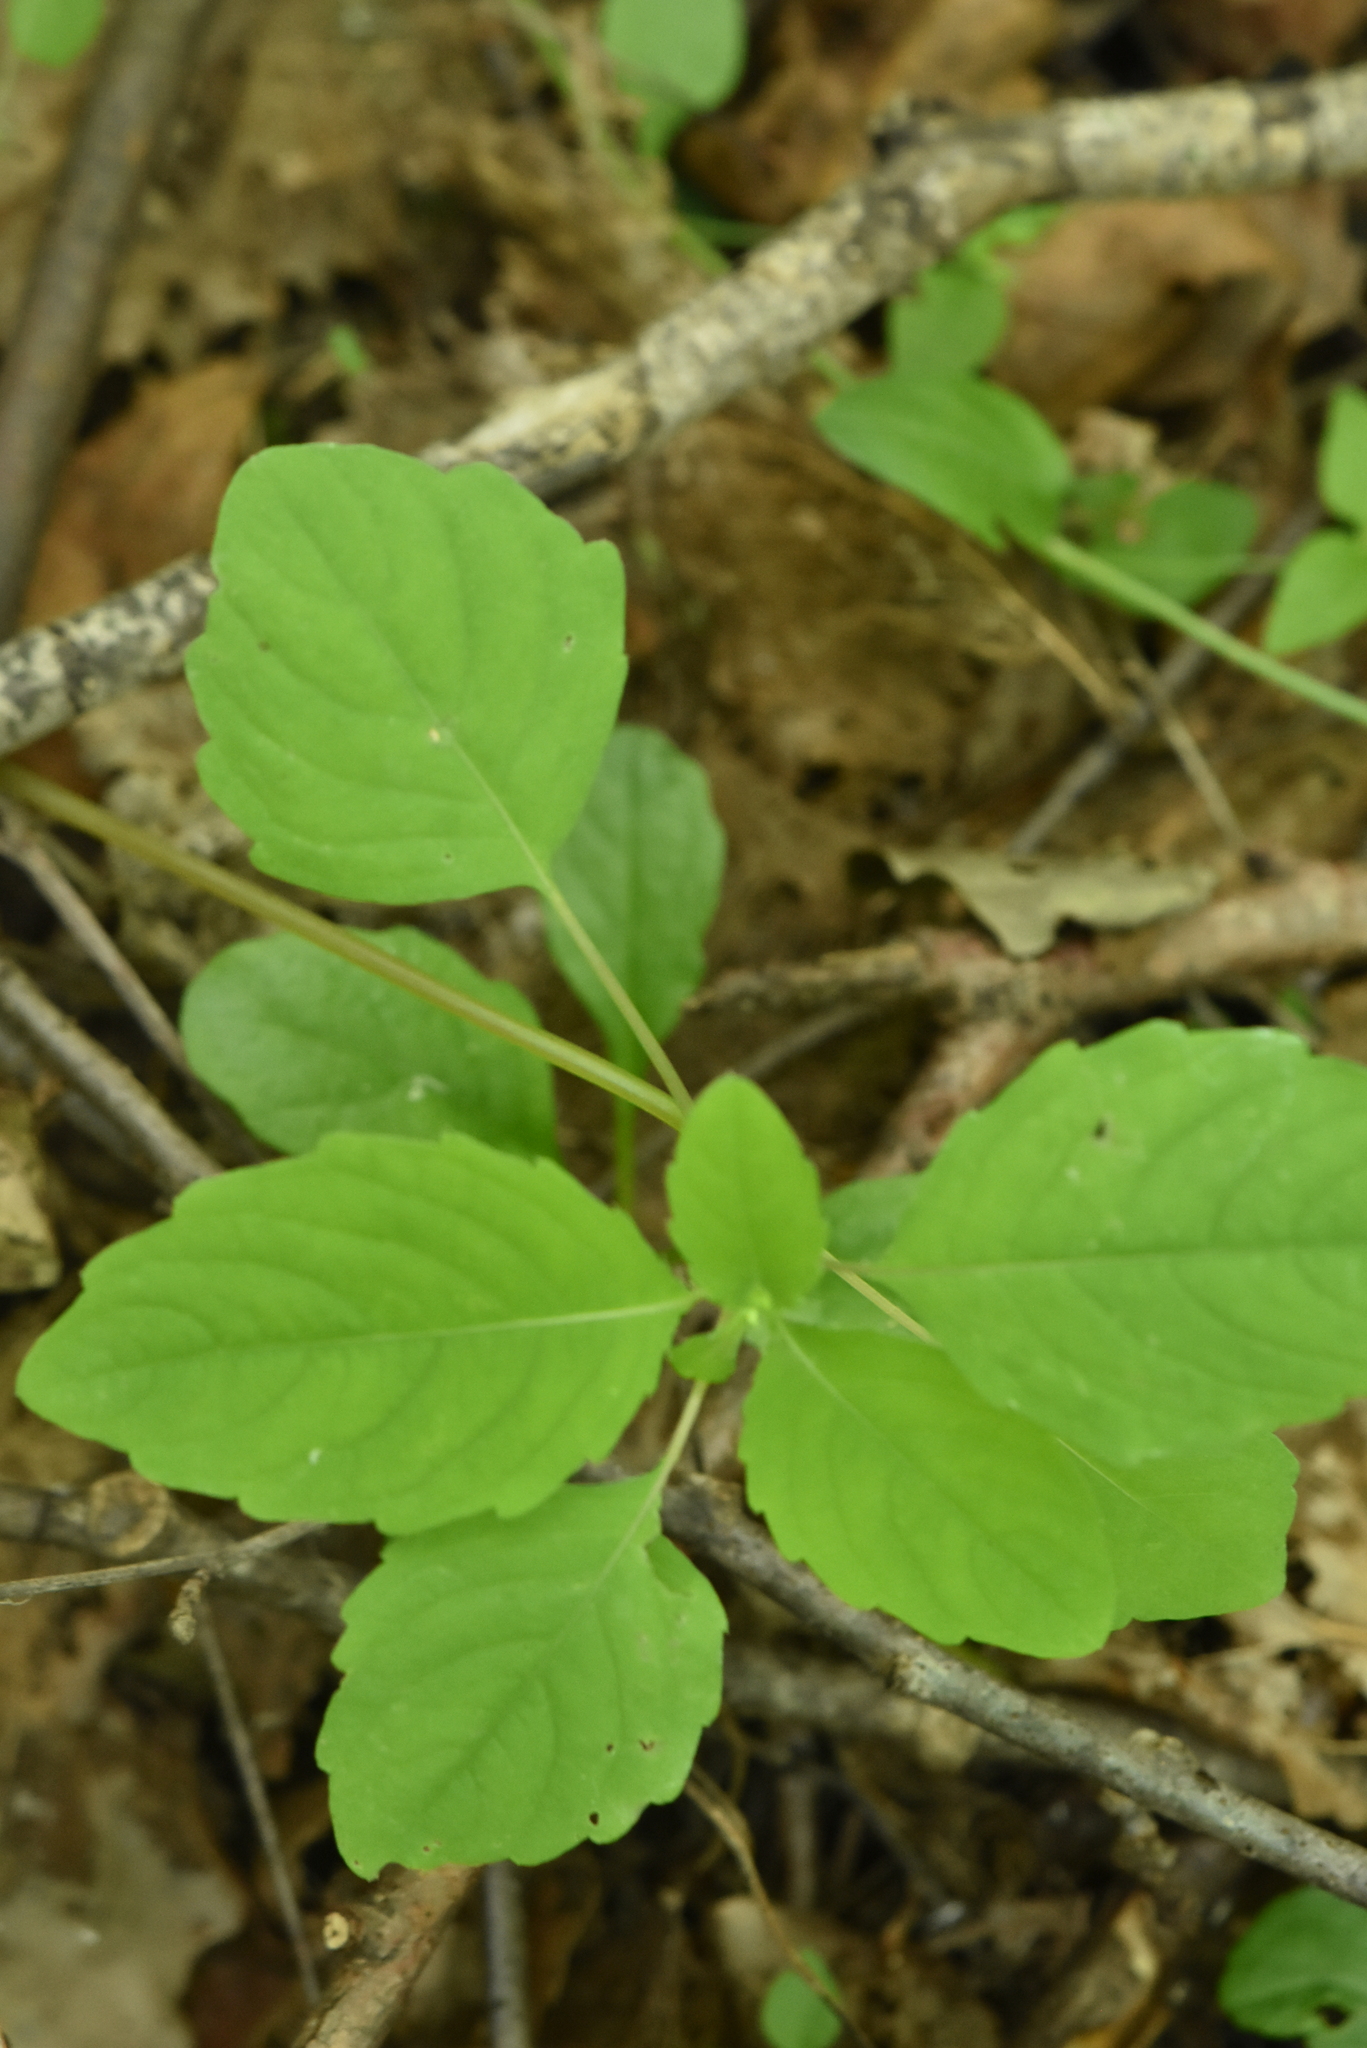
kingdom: Plantae
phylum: Tracheophyta
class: Magnoliopsida
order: Ericales
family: Balsaminaceae
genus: Impatiens
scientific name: Impatiens noli-tangere
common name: Touch-me-not balsam
